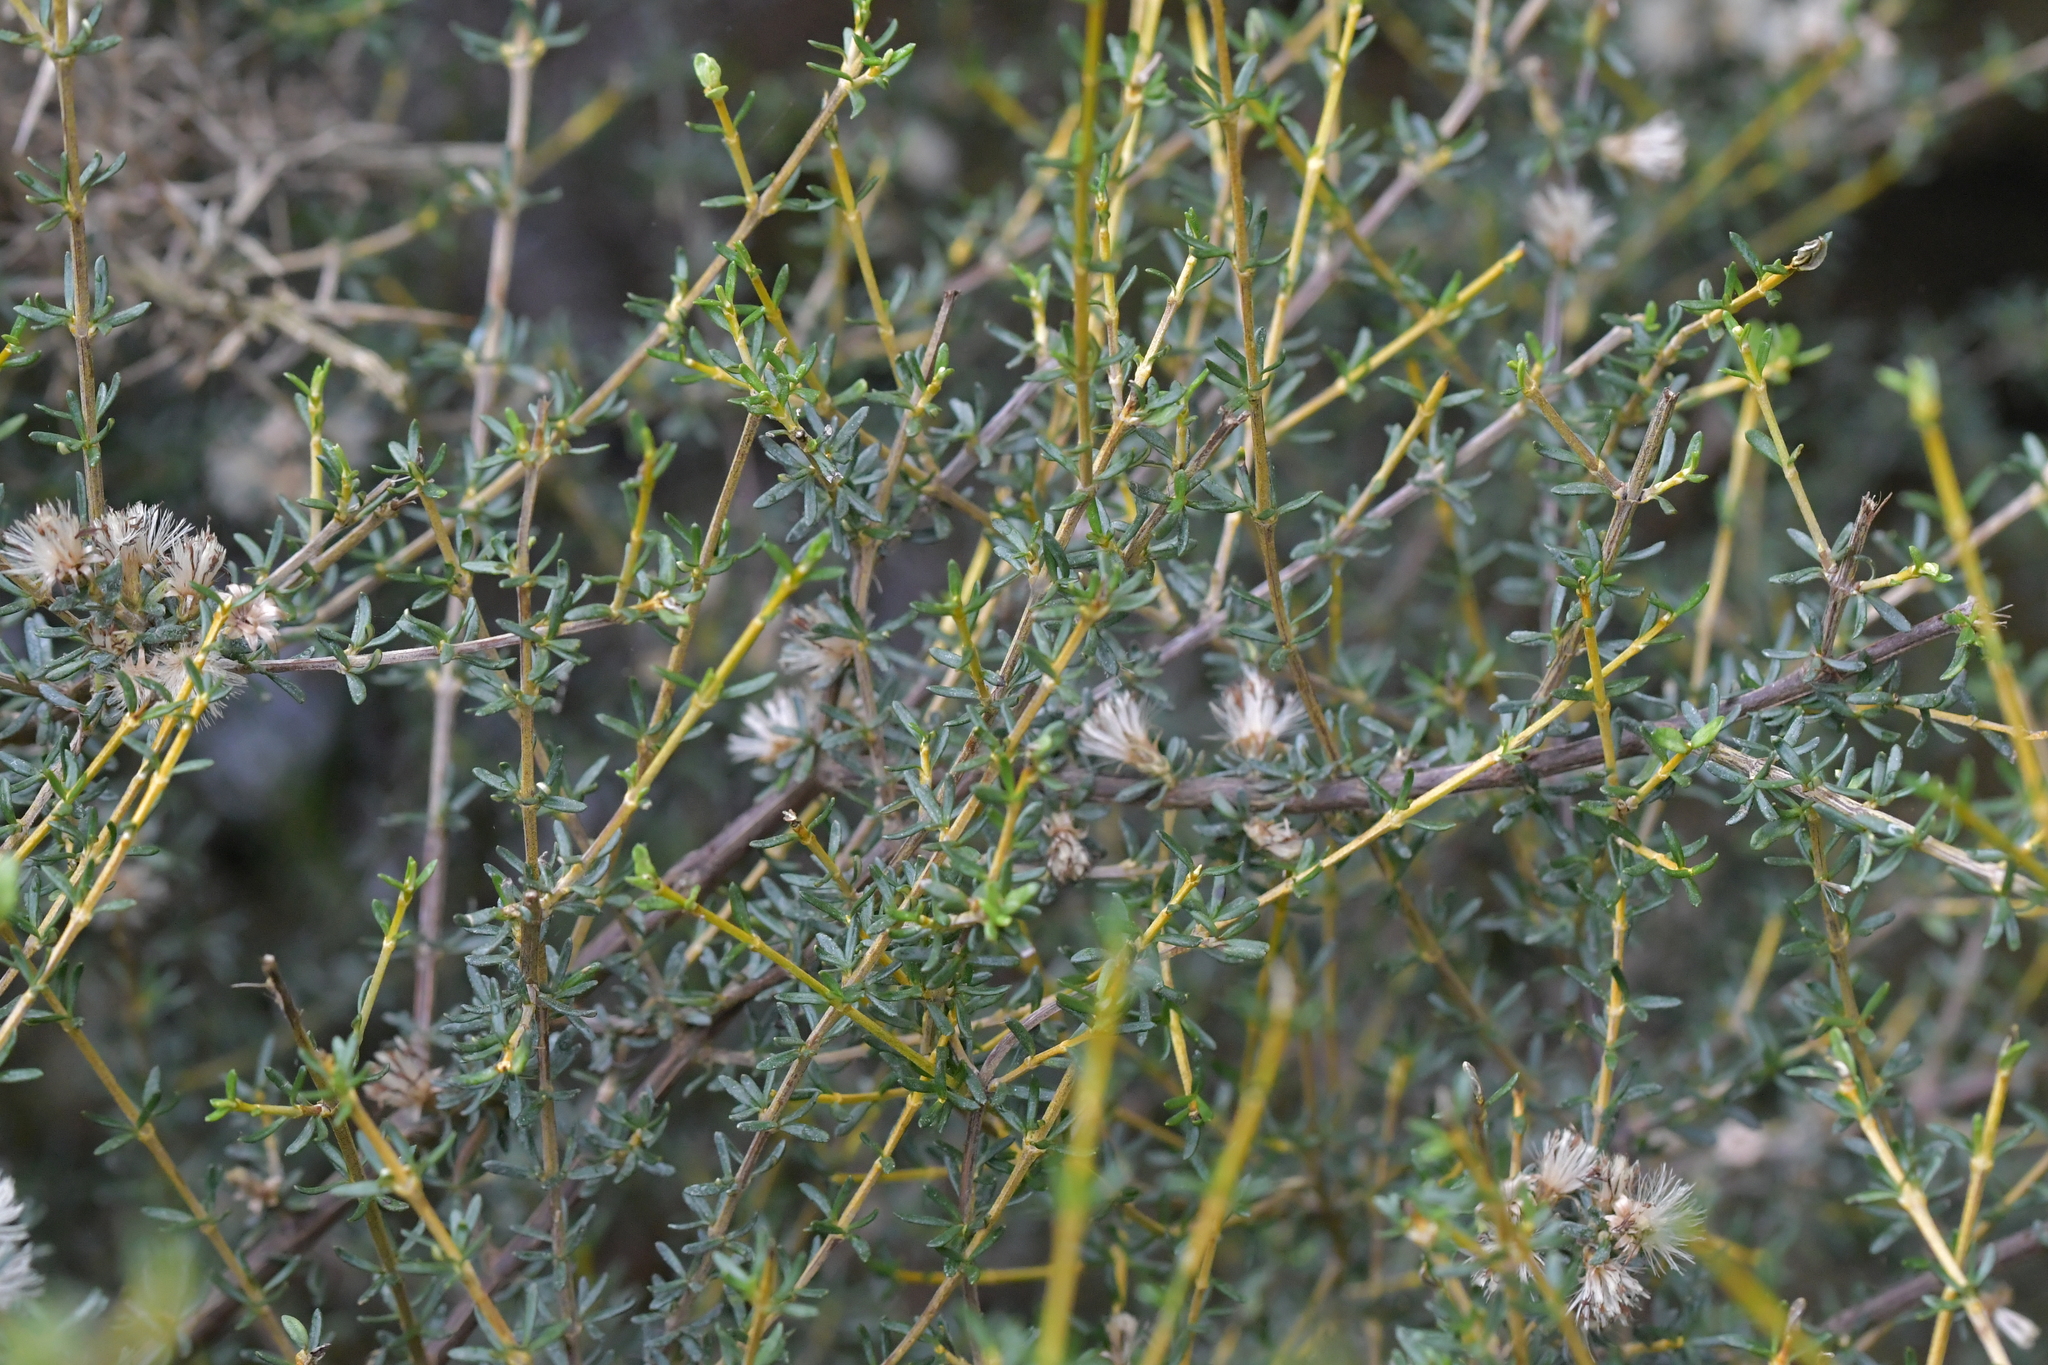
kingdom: Plantae
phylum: Tracheophyta
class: Magnoliopsida
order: Asterales
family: Asteraceae
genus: Olearia
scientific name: Olearia solandri
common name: Coastal daisybush
